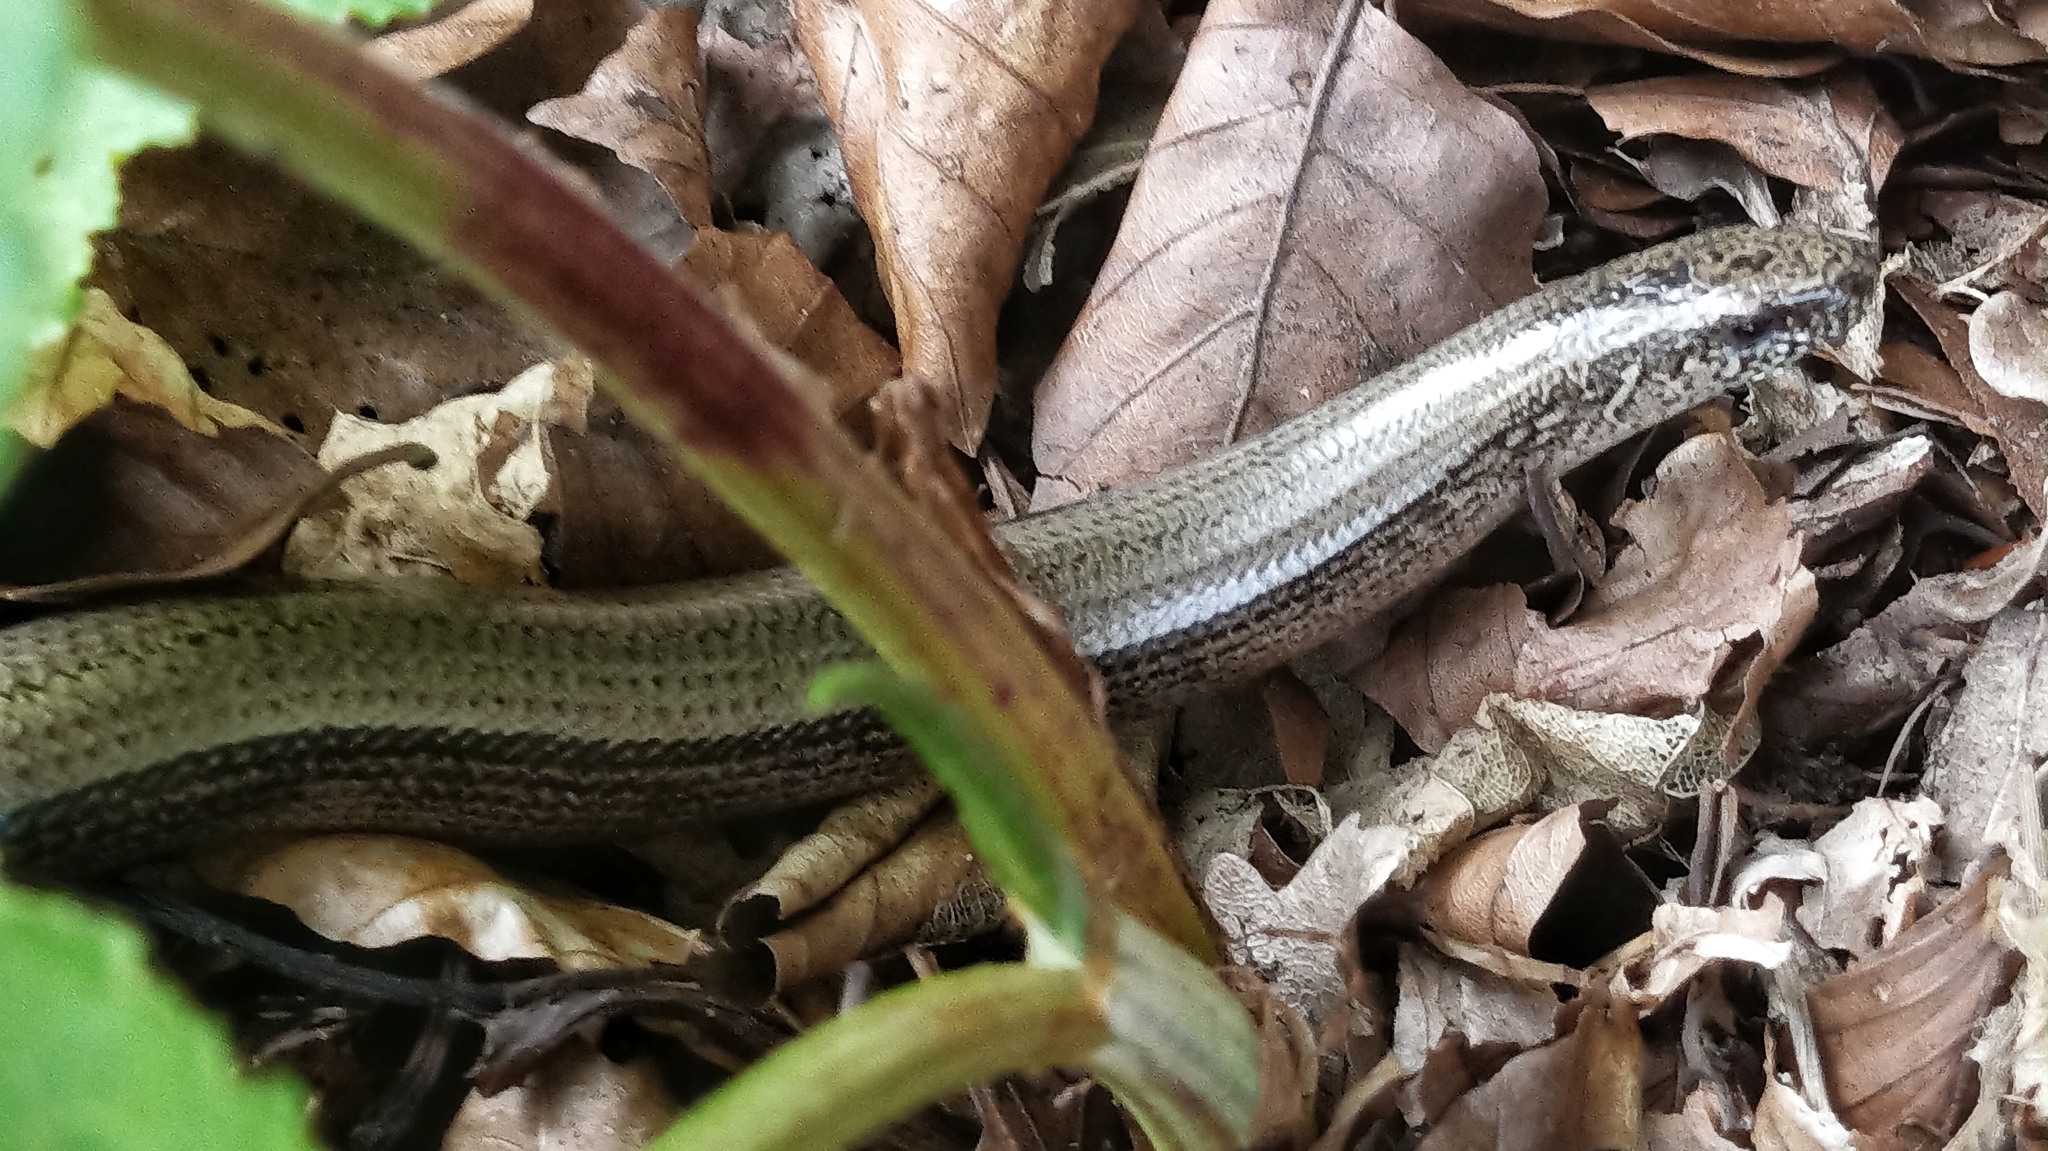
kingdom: Animalia
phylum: Chordata
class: Squamata
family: Anguidae
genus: Anguis
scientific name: Anguis fragilis
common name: Slow worm
